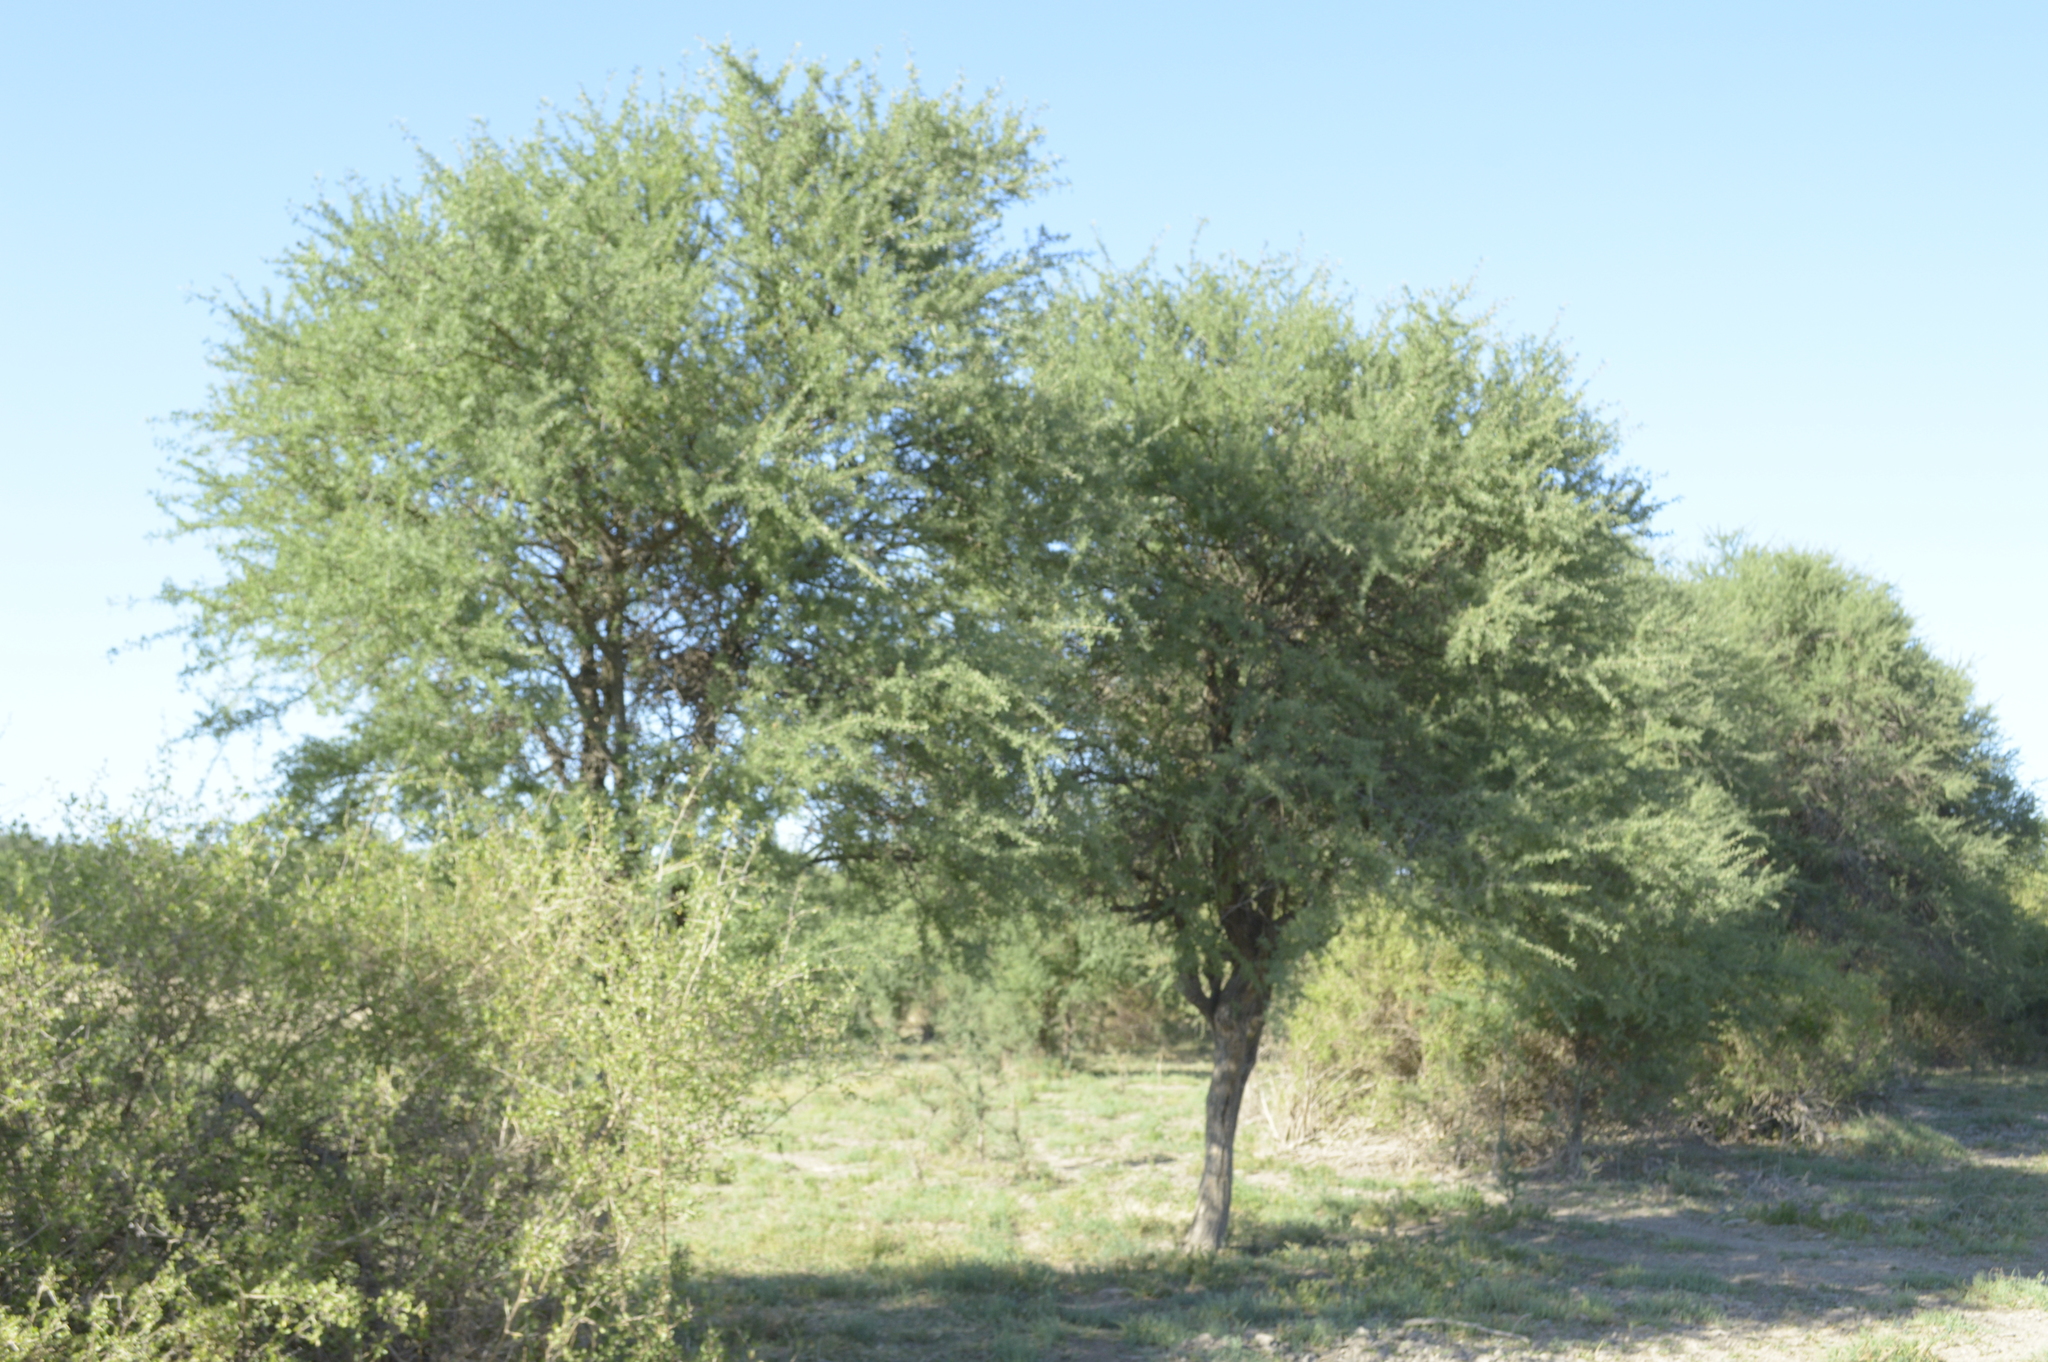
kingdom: Plantae
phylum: Tracheophyta
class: Magnoliopsida
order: Fabales
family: Fabaceae
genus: Geoffroea
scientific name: Geoffroea decorticans
